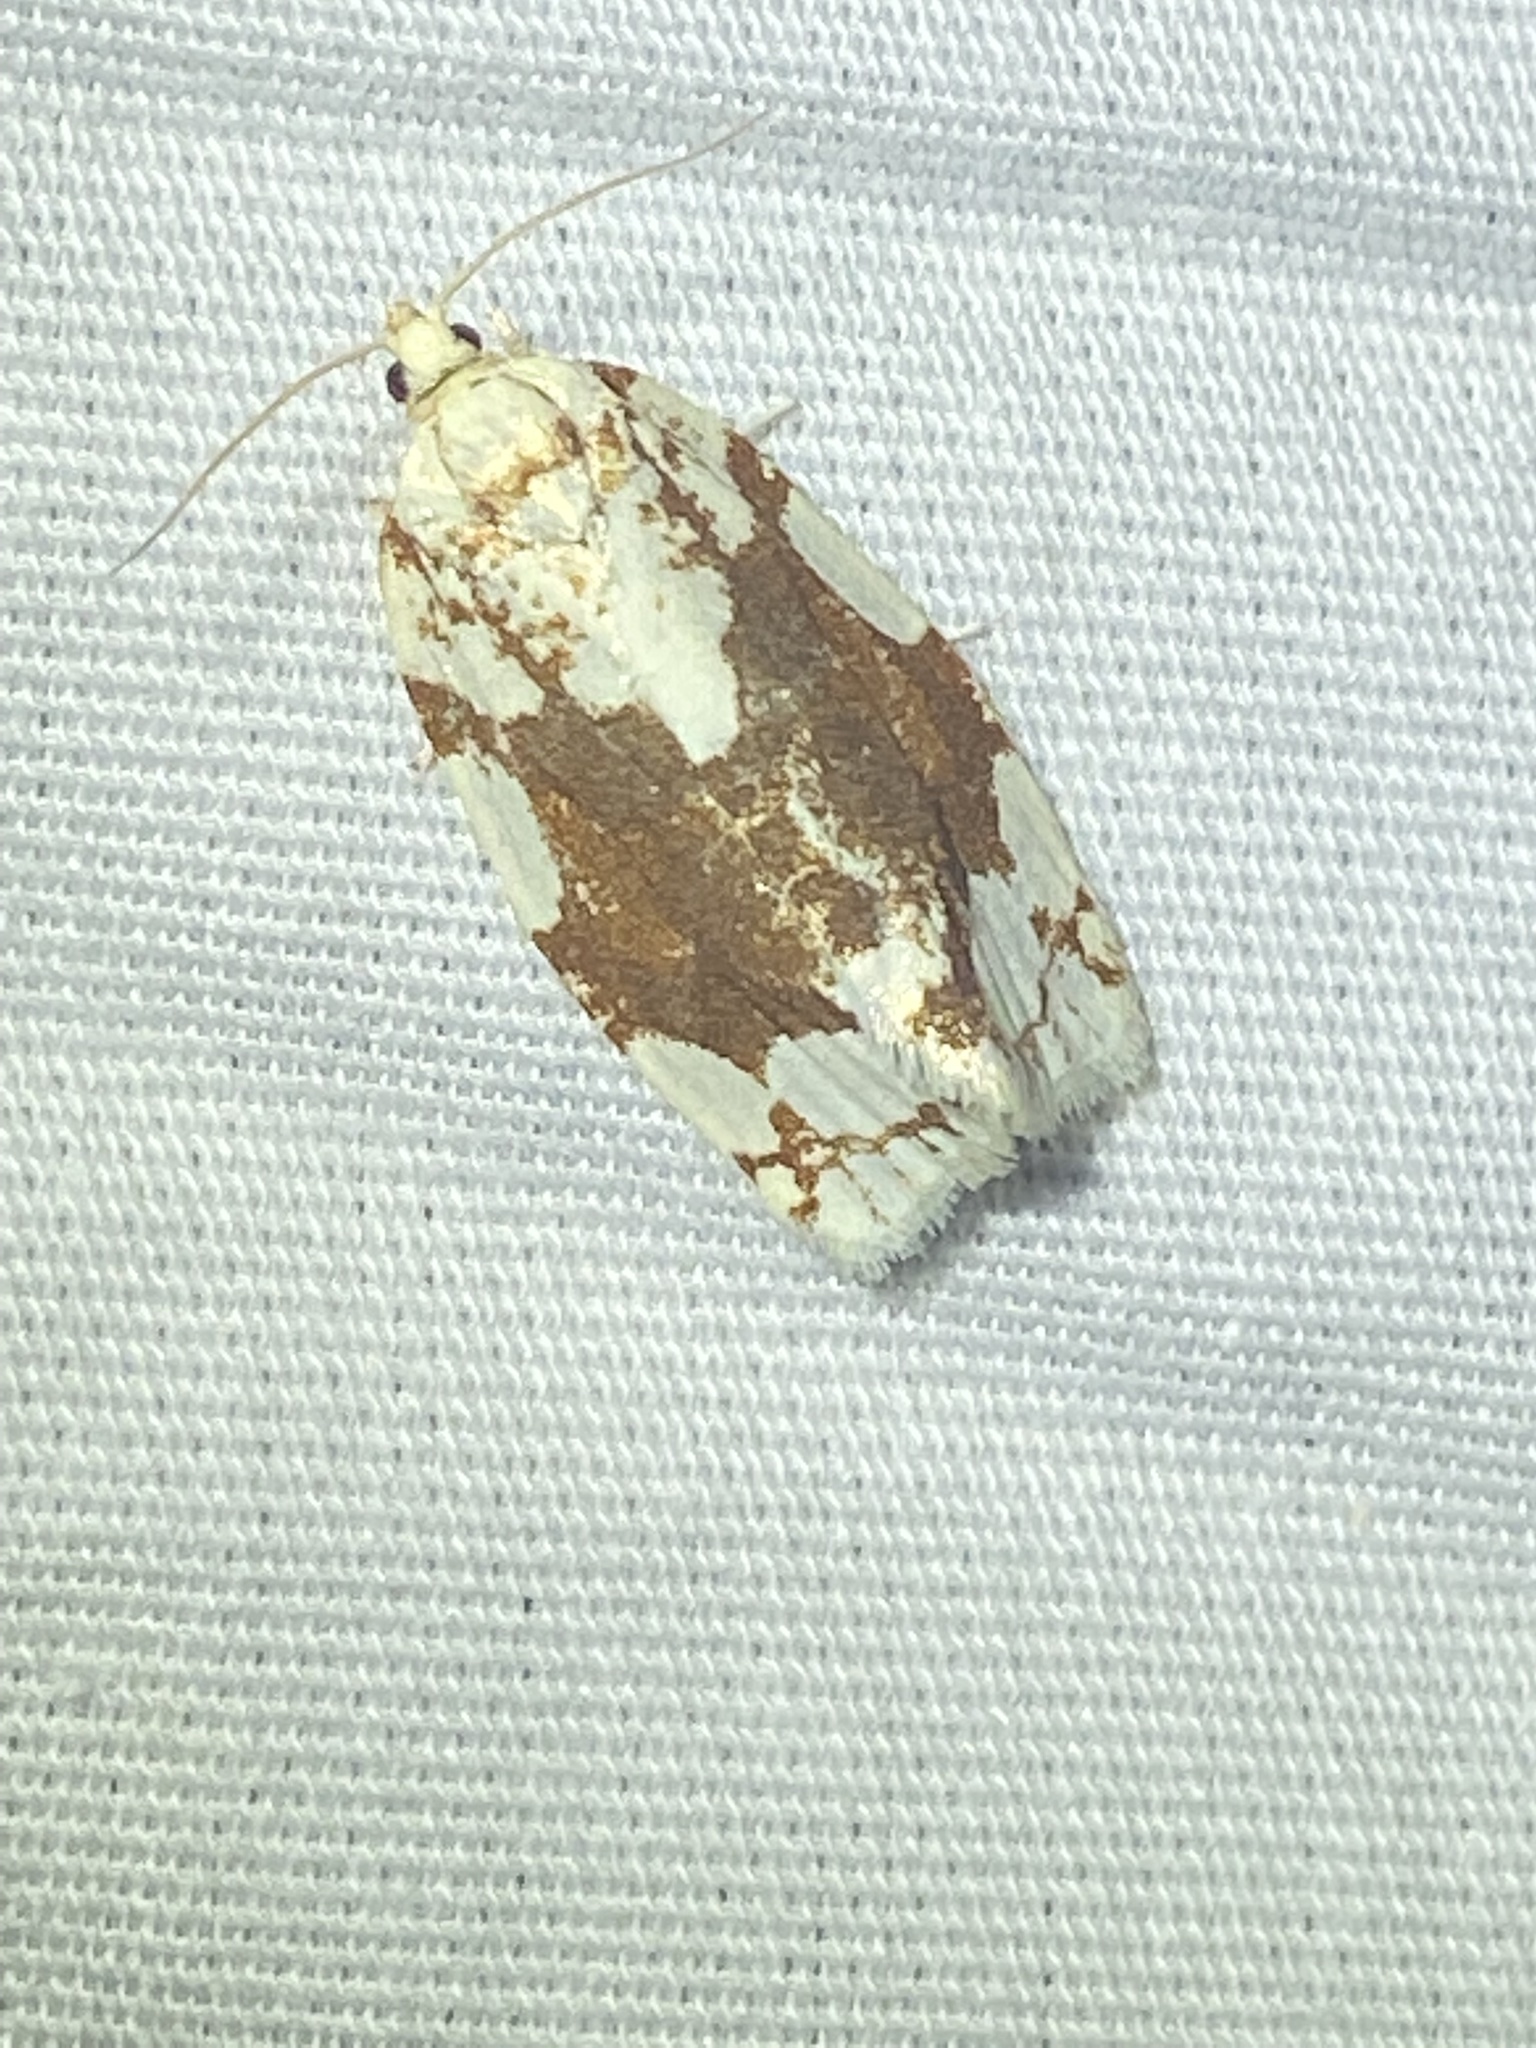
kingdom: Animalia
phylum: Arthropoda
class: Insecta
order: Lepidoptera
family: Tortricidae
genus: Argyrotaenia
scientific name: Argyrotaenia alisellana
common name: White-spotted leafroller moth
